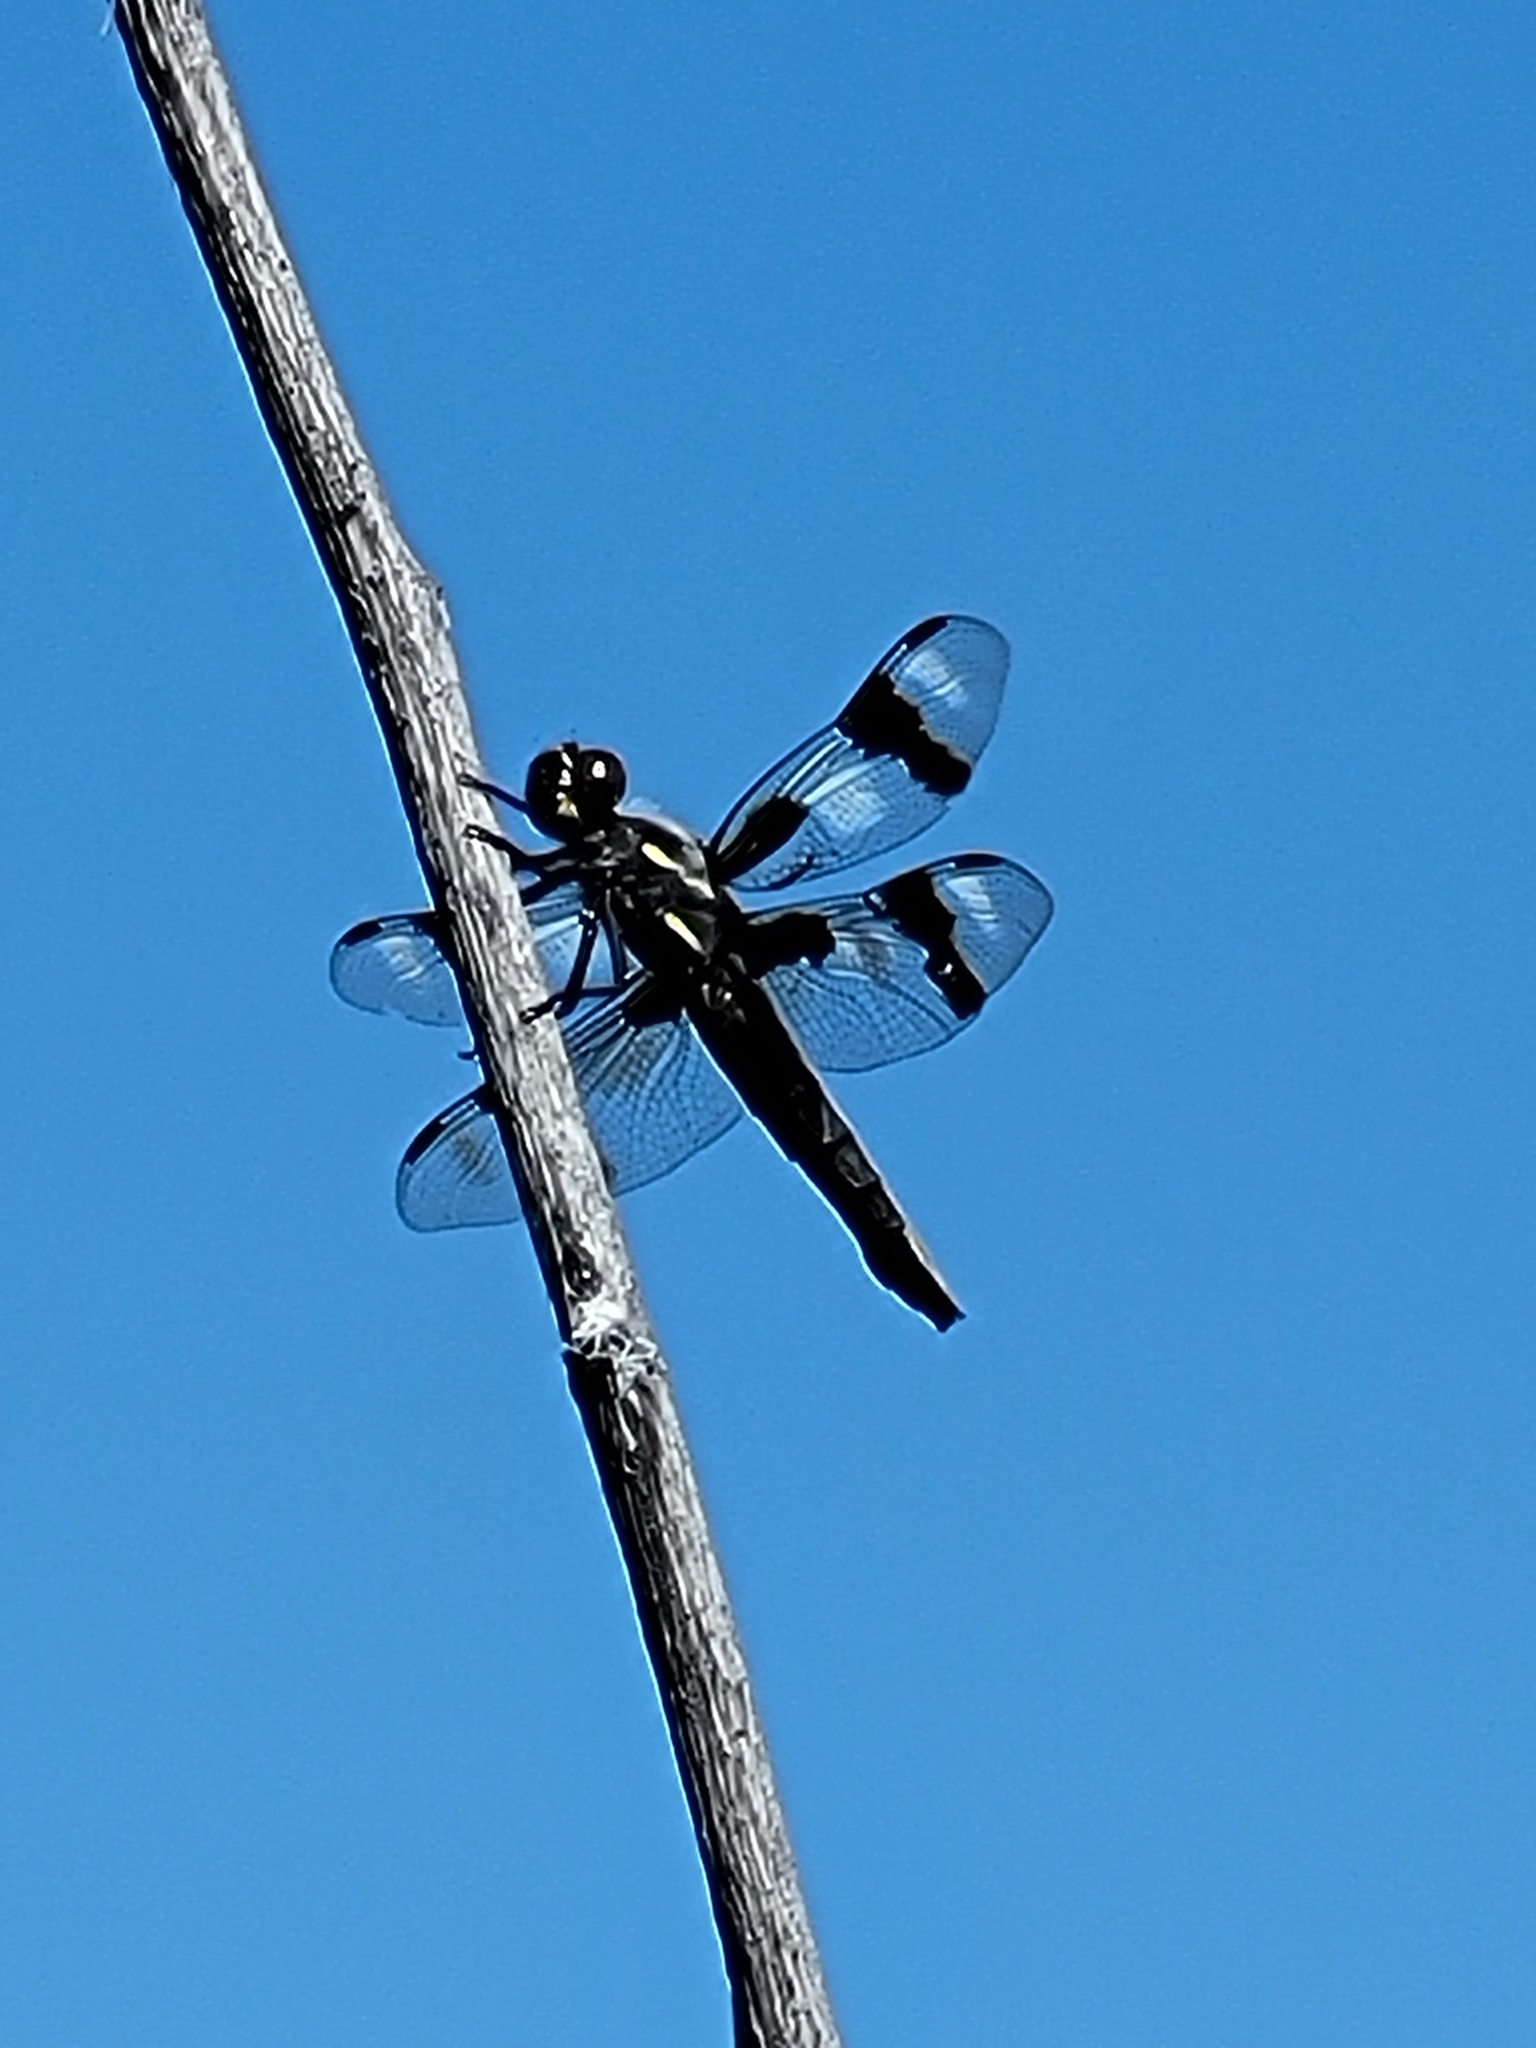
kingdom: Animalia
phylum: Arthropoda
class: Insecta
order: Odonata
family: Libellulidae
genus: Libellula
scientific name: Libellula forensis
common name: Eight-spotted skimmer
